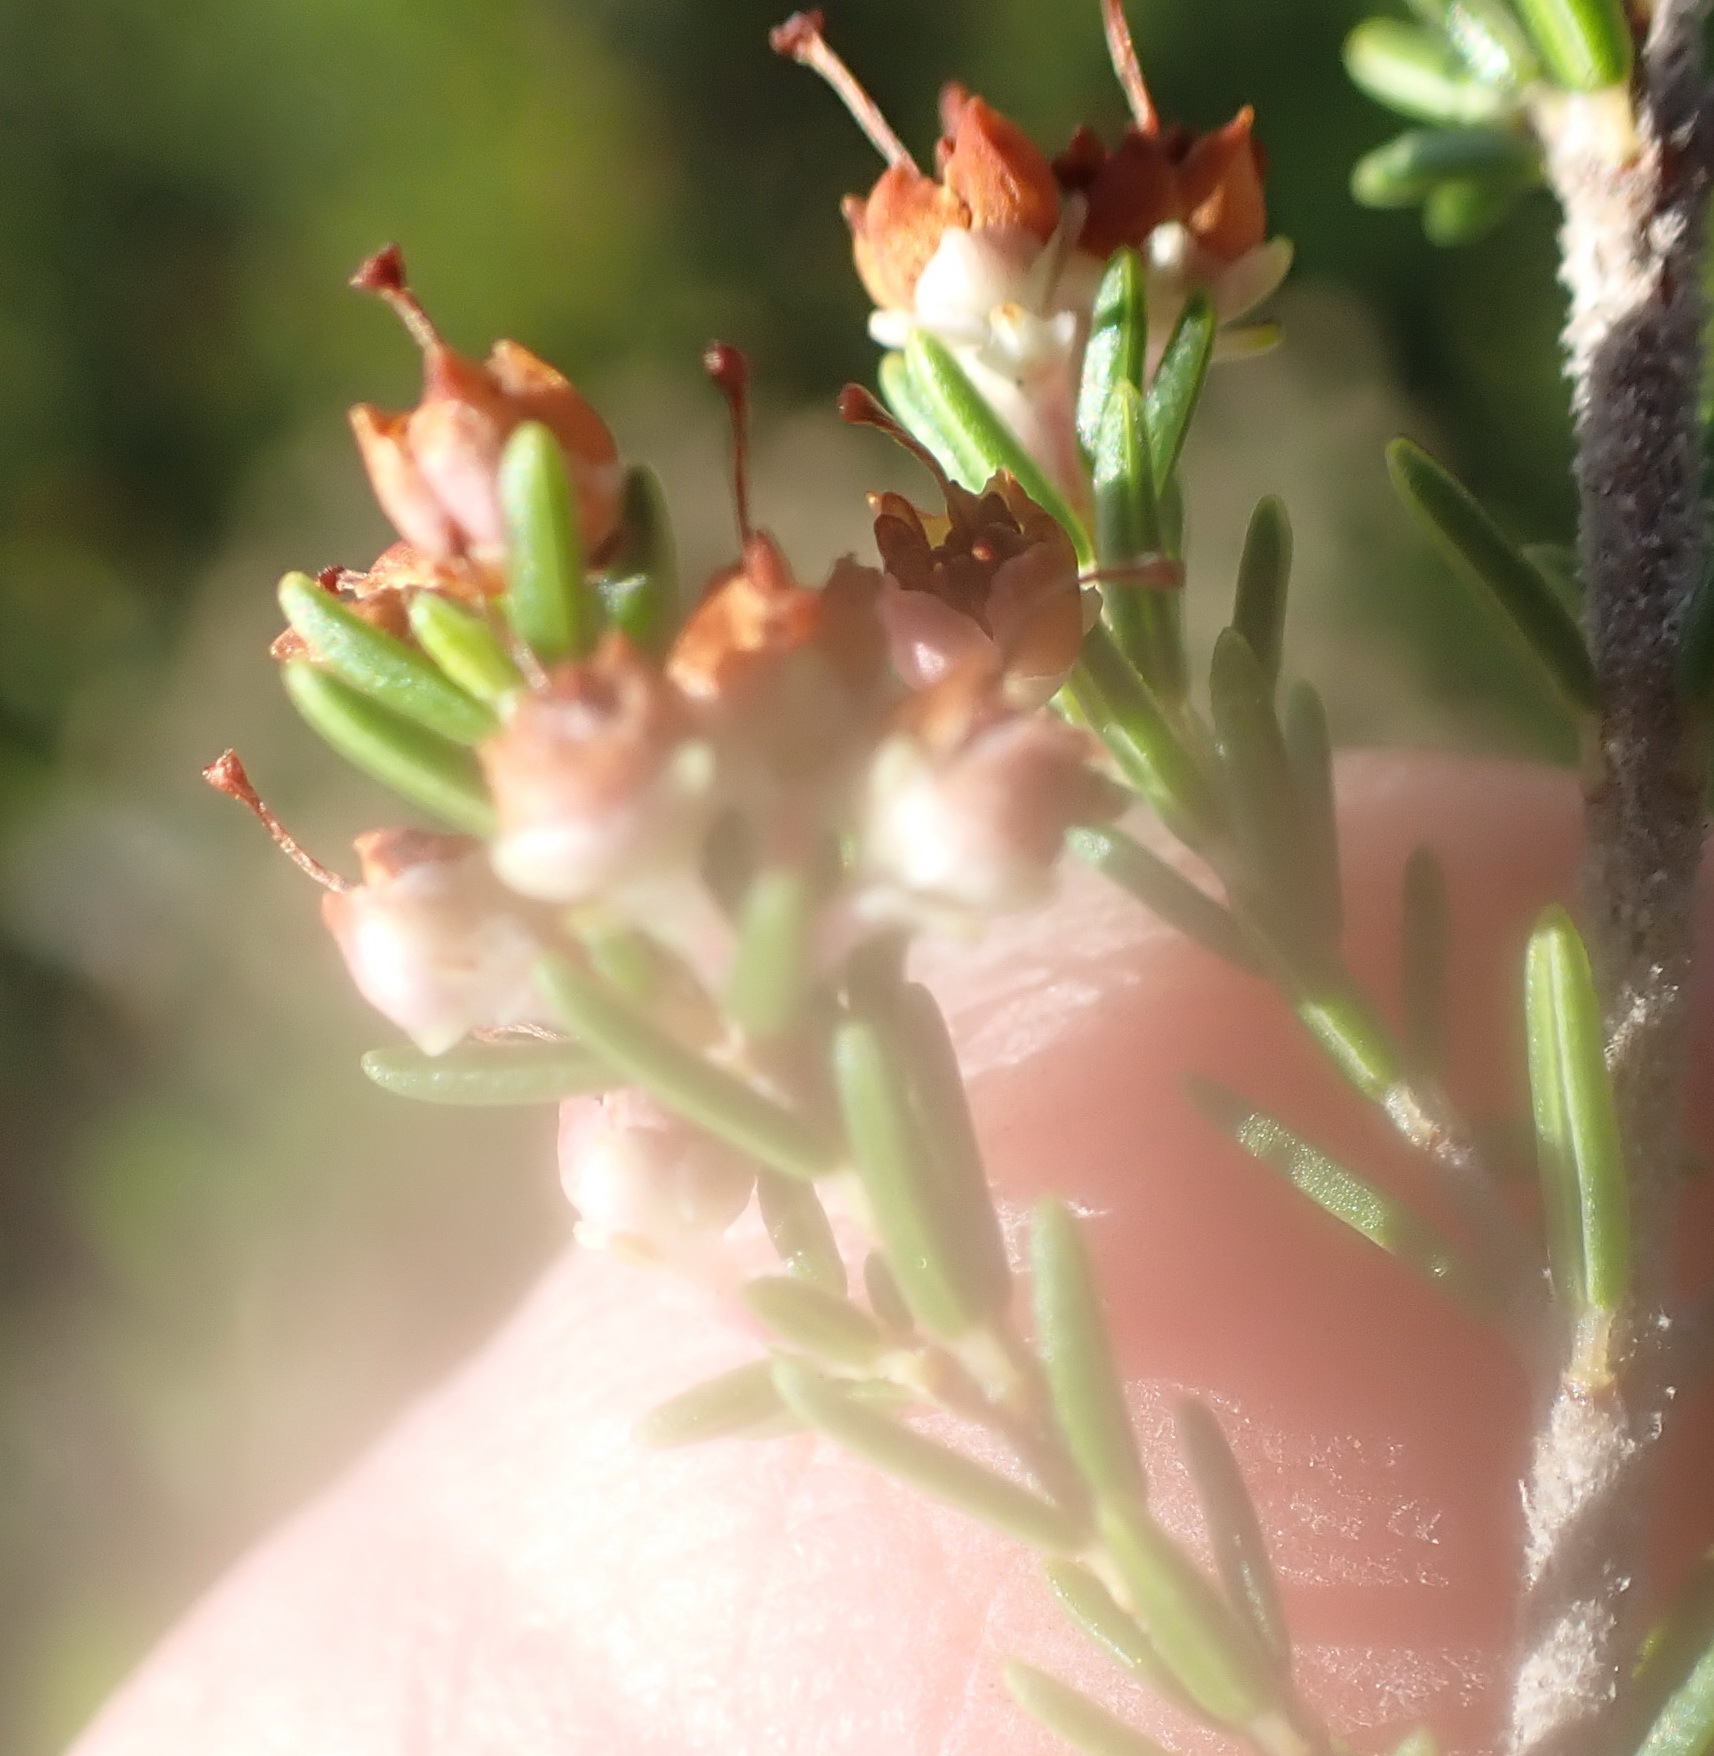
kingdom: Plantae
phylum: Tracheophyta
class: Magnoliopsida
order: Ericales
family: Ericaceae
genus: Erica
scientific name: Erica sparsa
